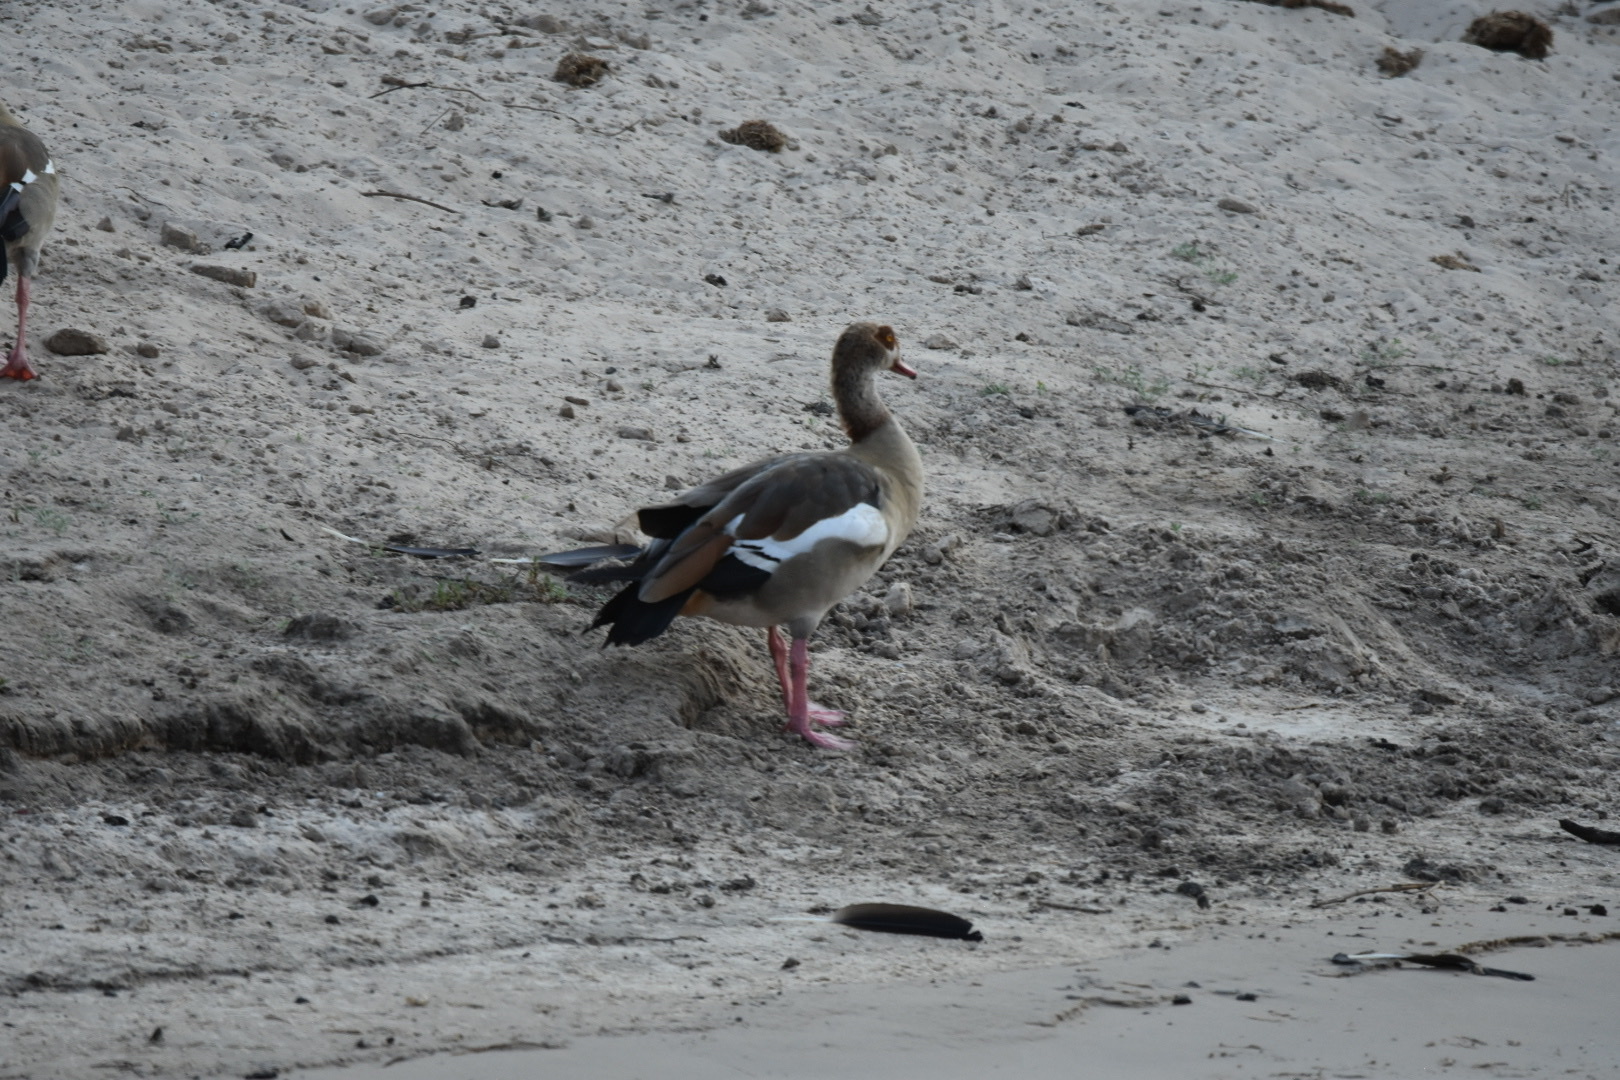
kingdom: Animalia
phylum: Chordata
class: Aves
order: Anseriformes
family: Anatidae
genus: Alopochen
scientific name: Alopochen aegyptiaca
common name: Egyptian goose
